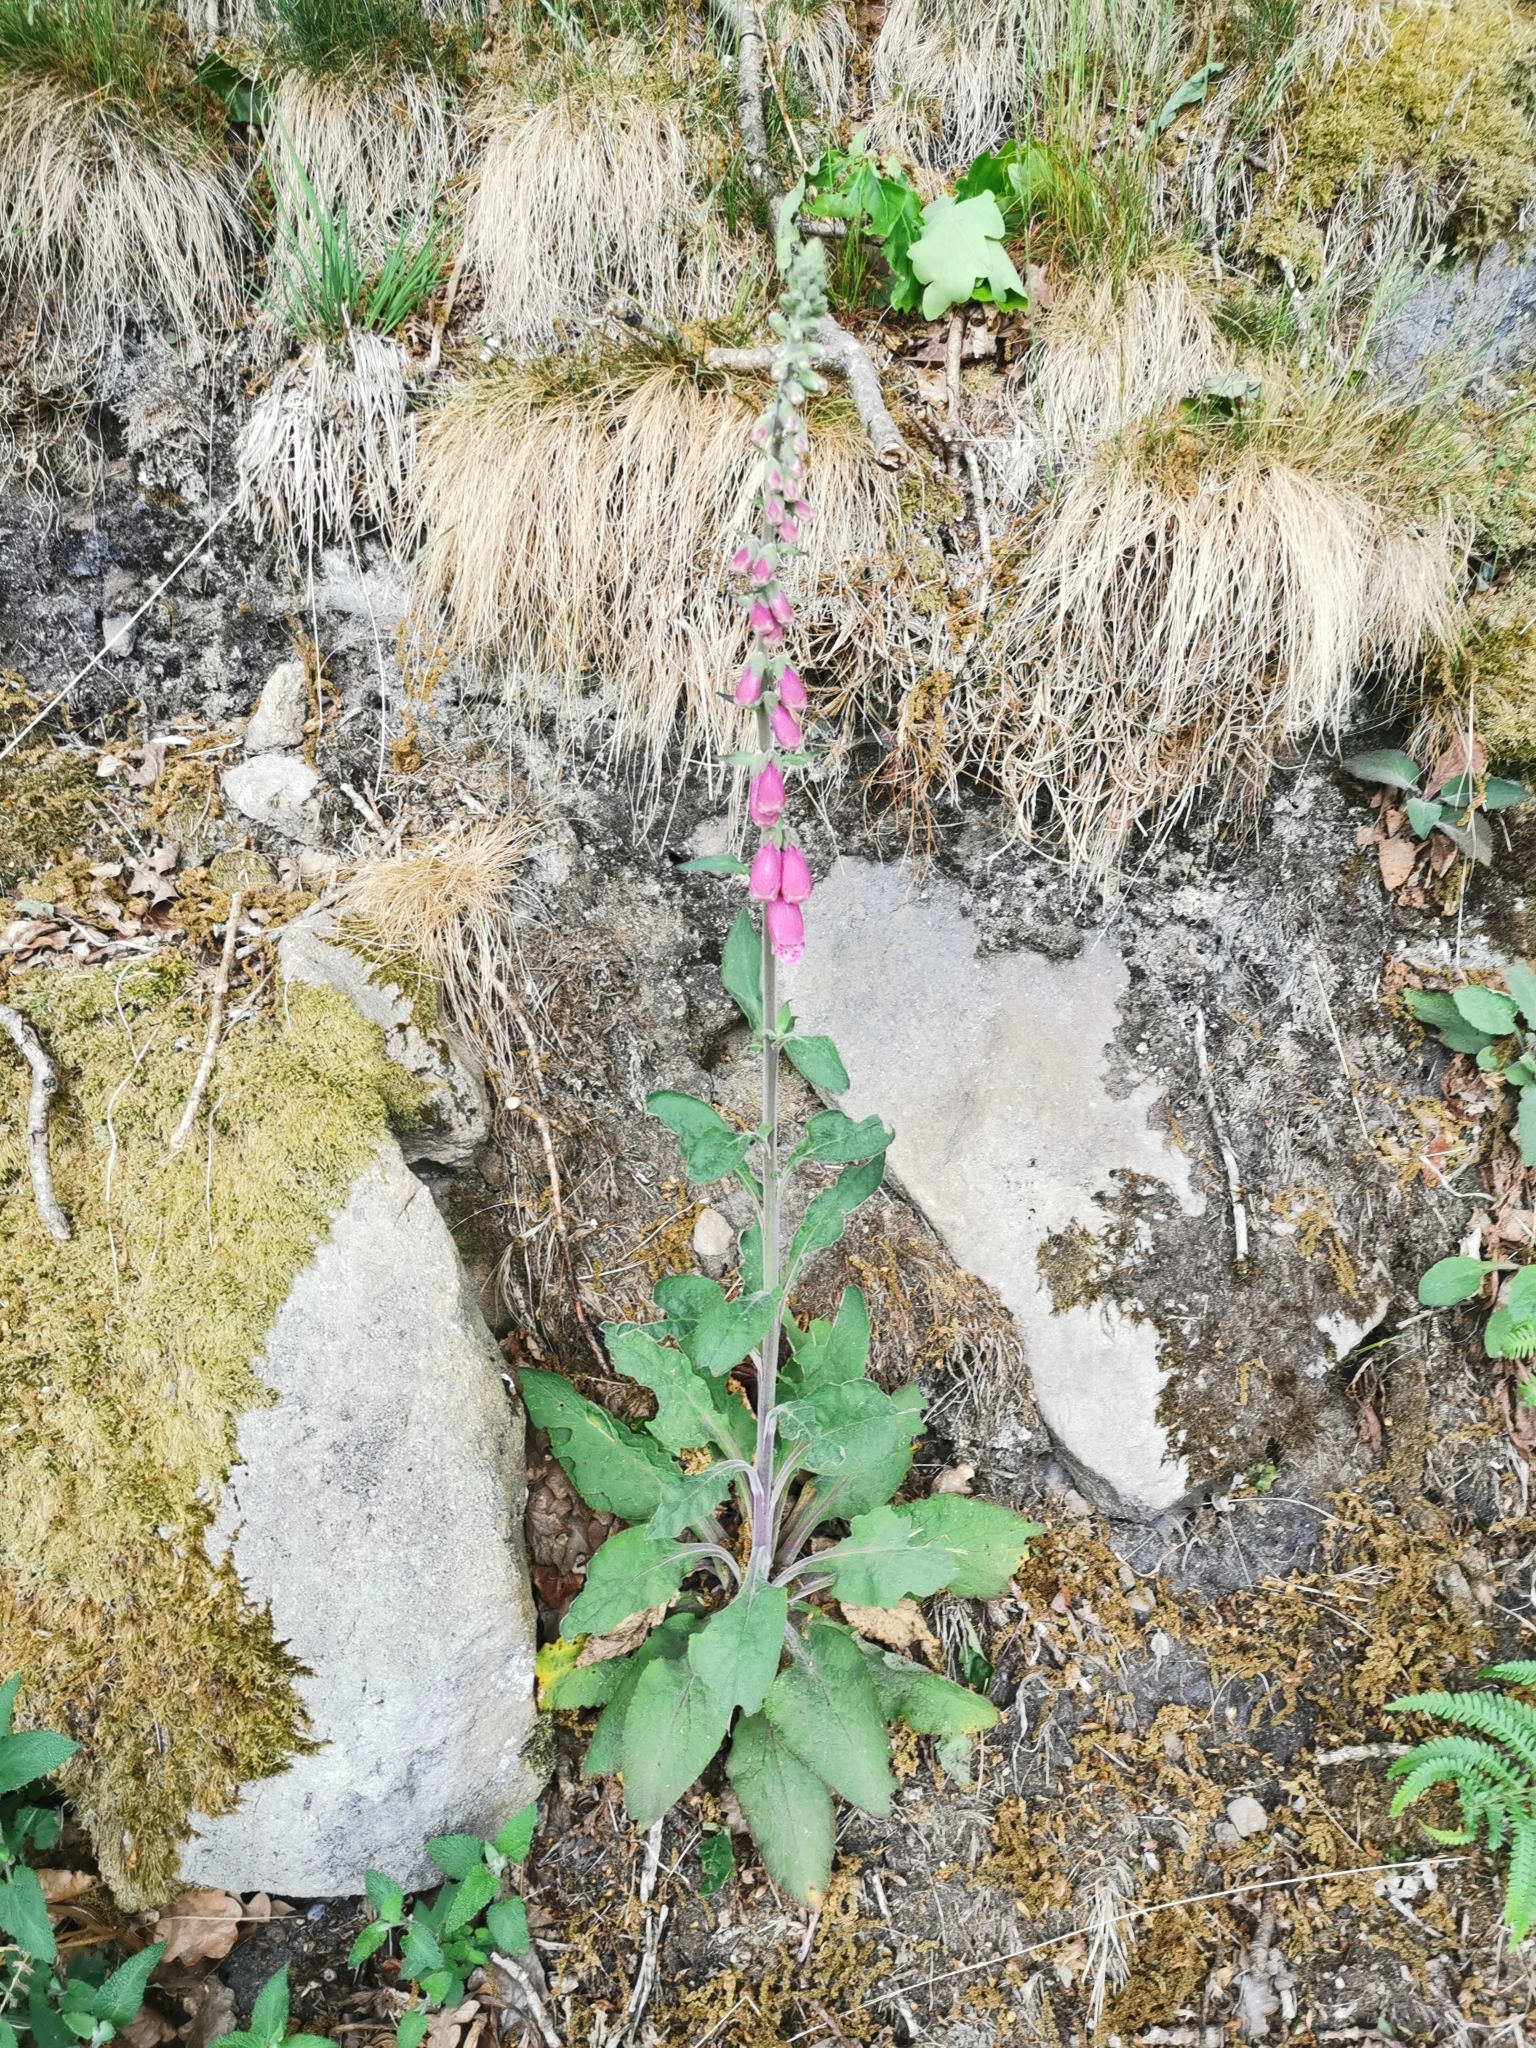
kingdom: Plantae
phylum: Tracheophyta
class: Magnoliopsida
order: Lamiales
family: Plantaginaceae
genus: Digitalis
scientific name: Digitalis purpurea
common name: Foxglove
